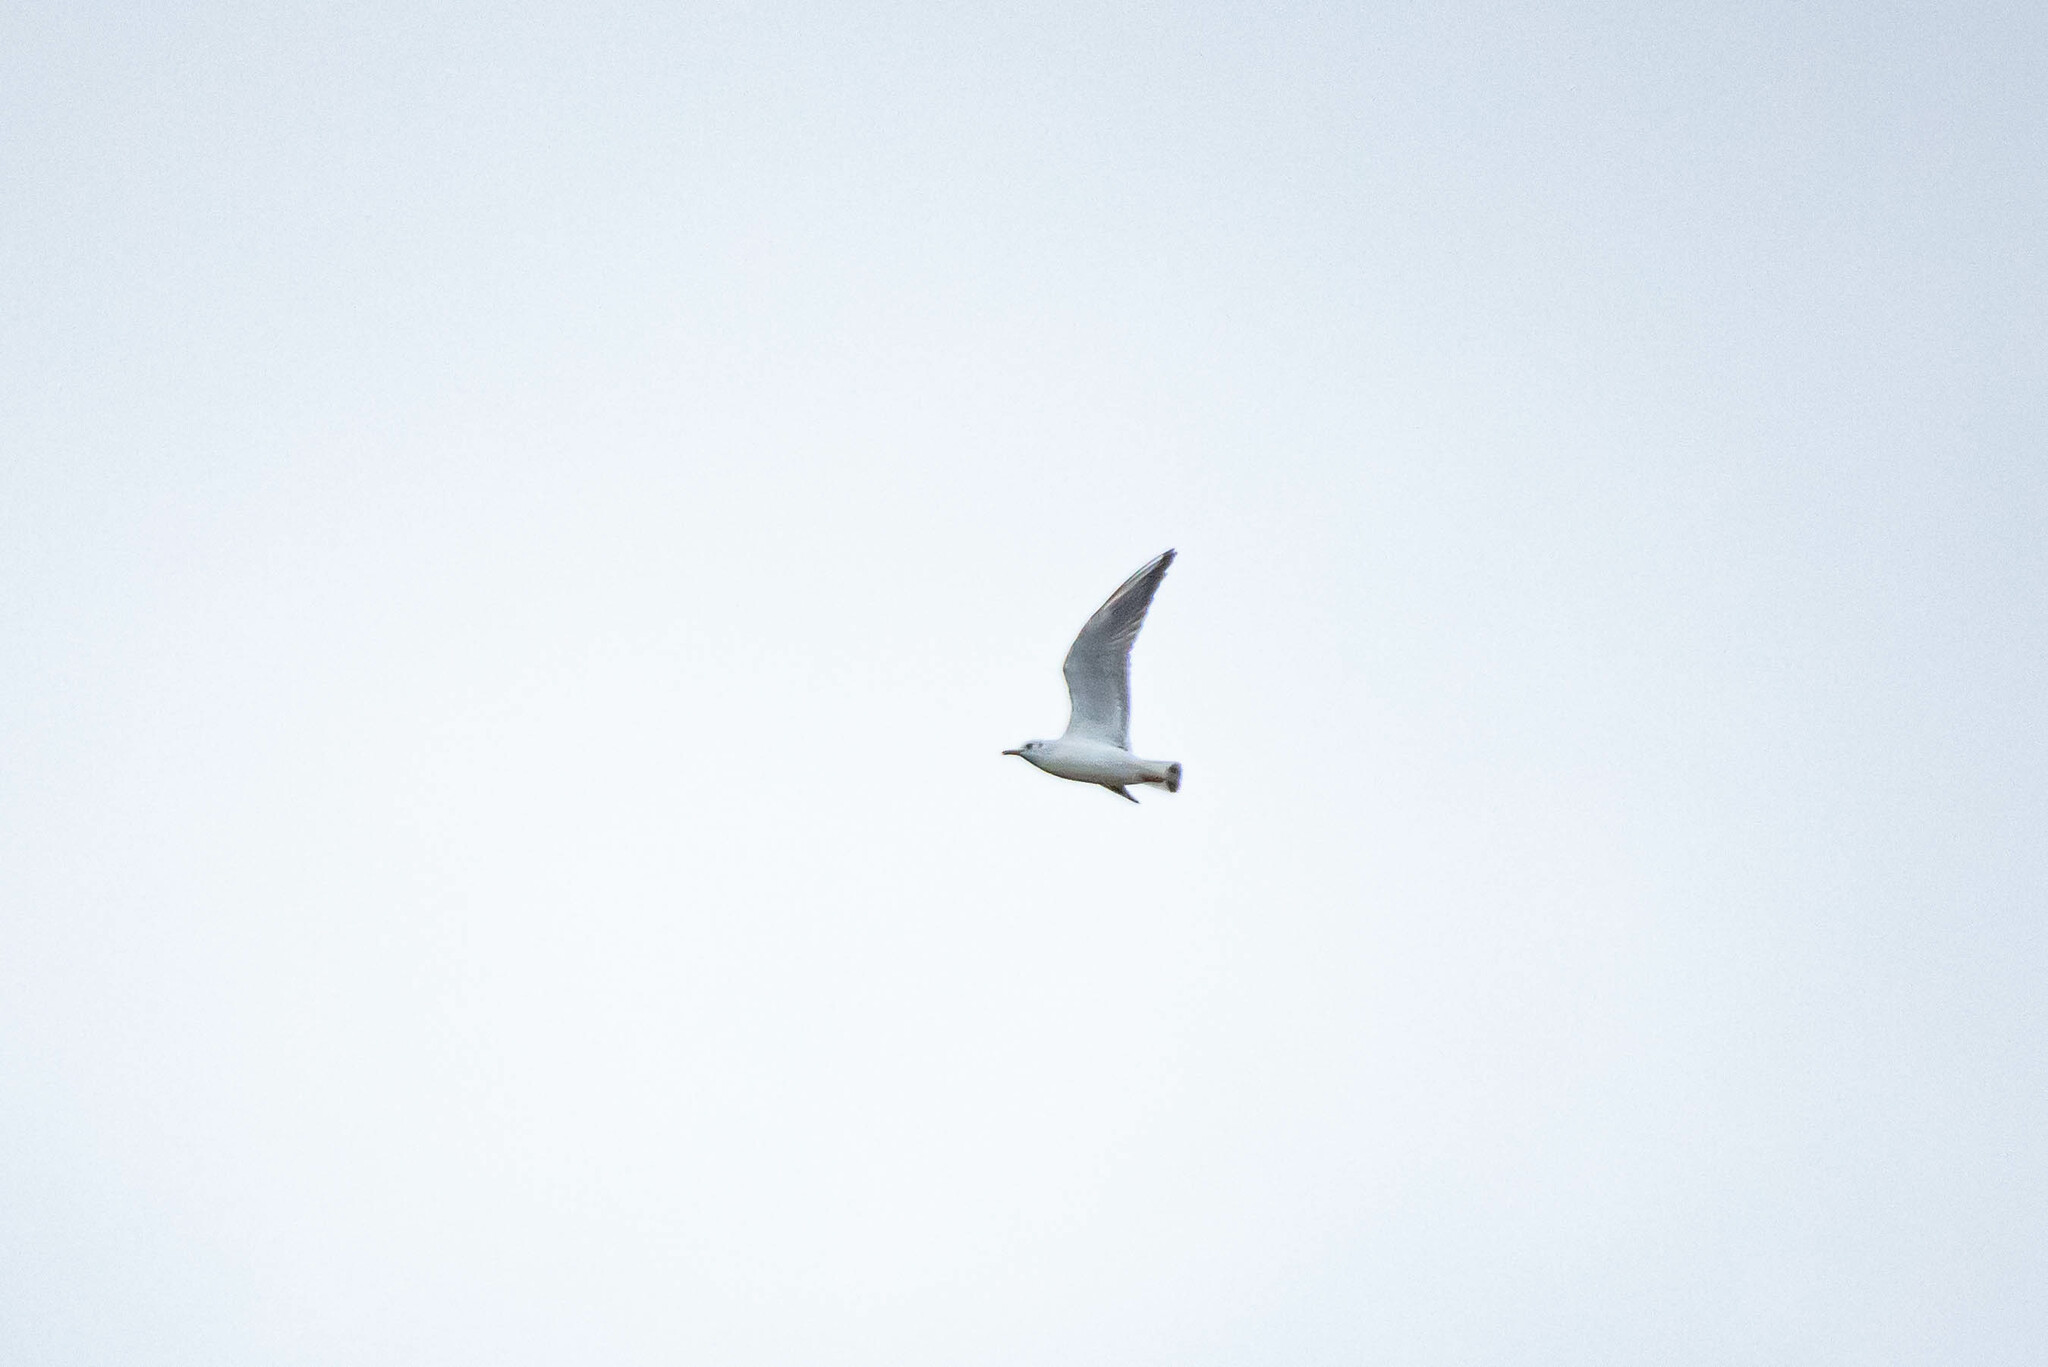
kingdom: Animalia
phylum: Chordata
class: Aves
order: Charadriiformes
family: Laridae
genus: Chroicocephalus
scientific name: Chroicocephalus ridibundus
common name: Black-headed gull
